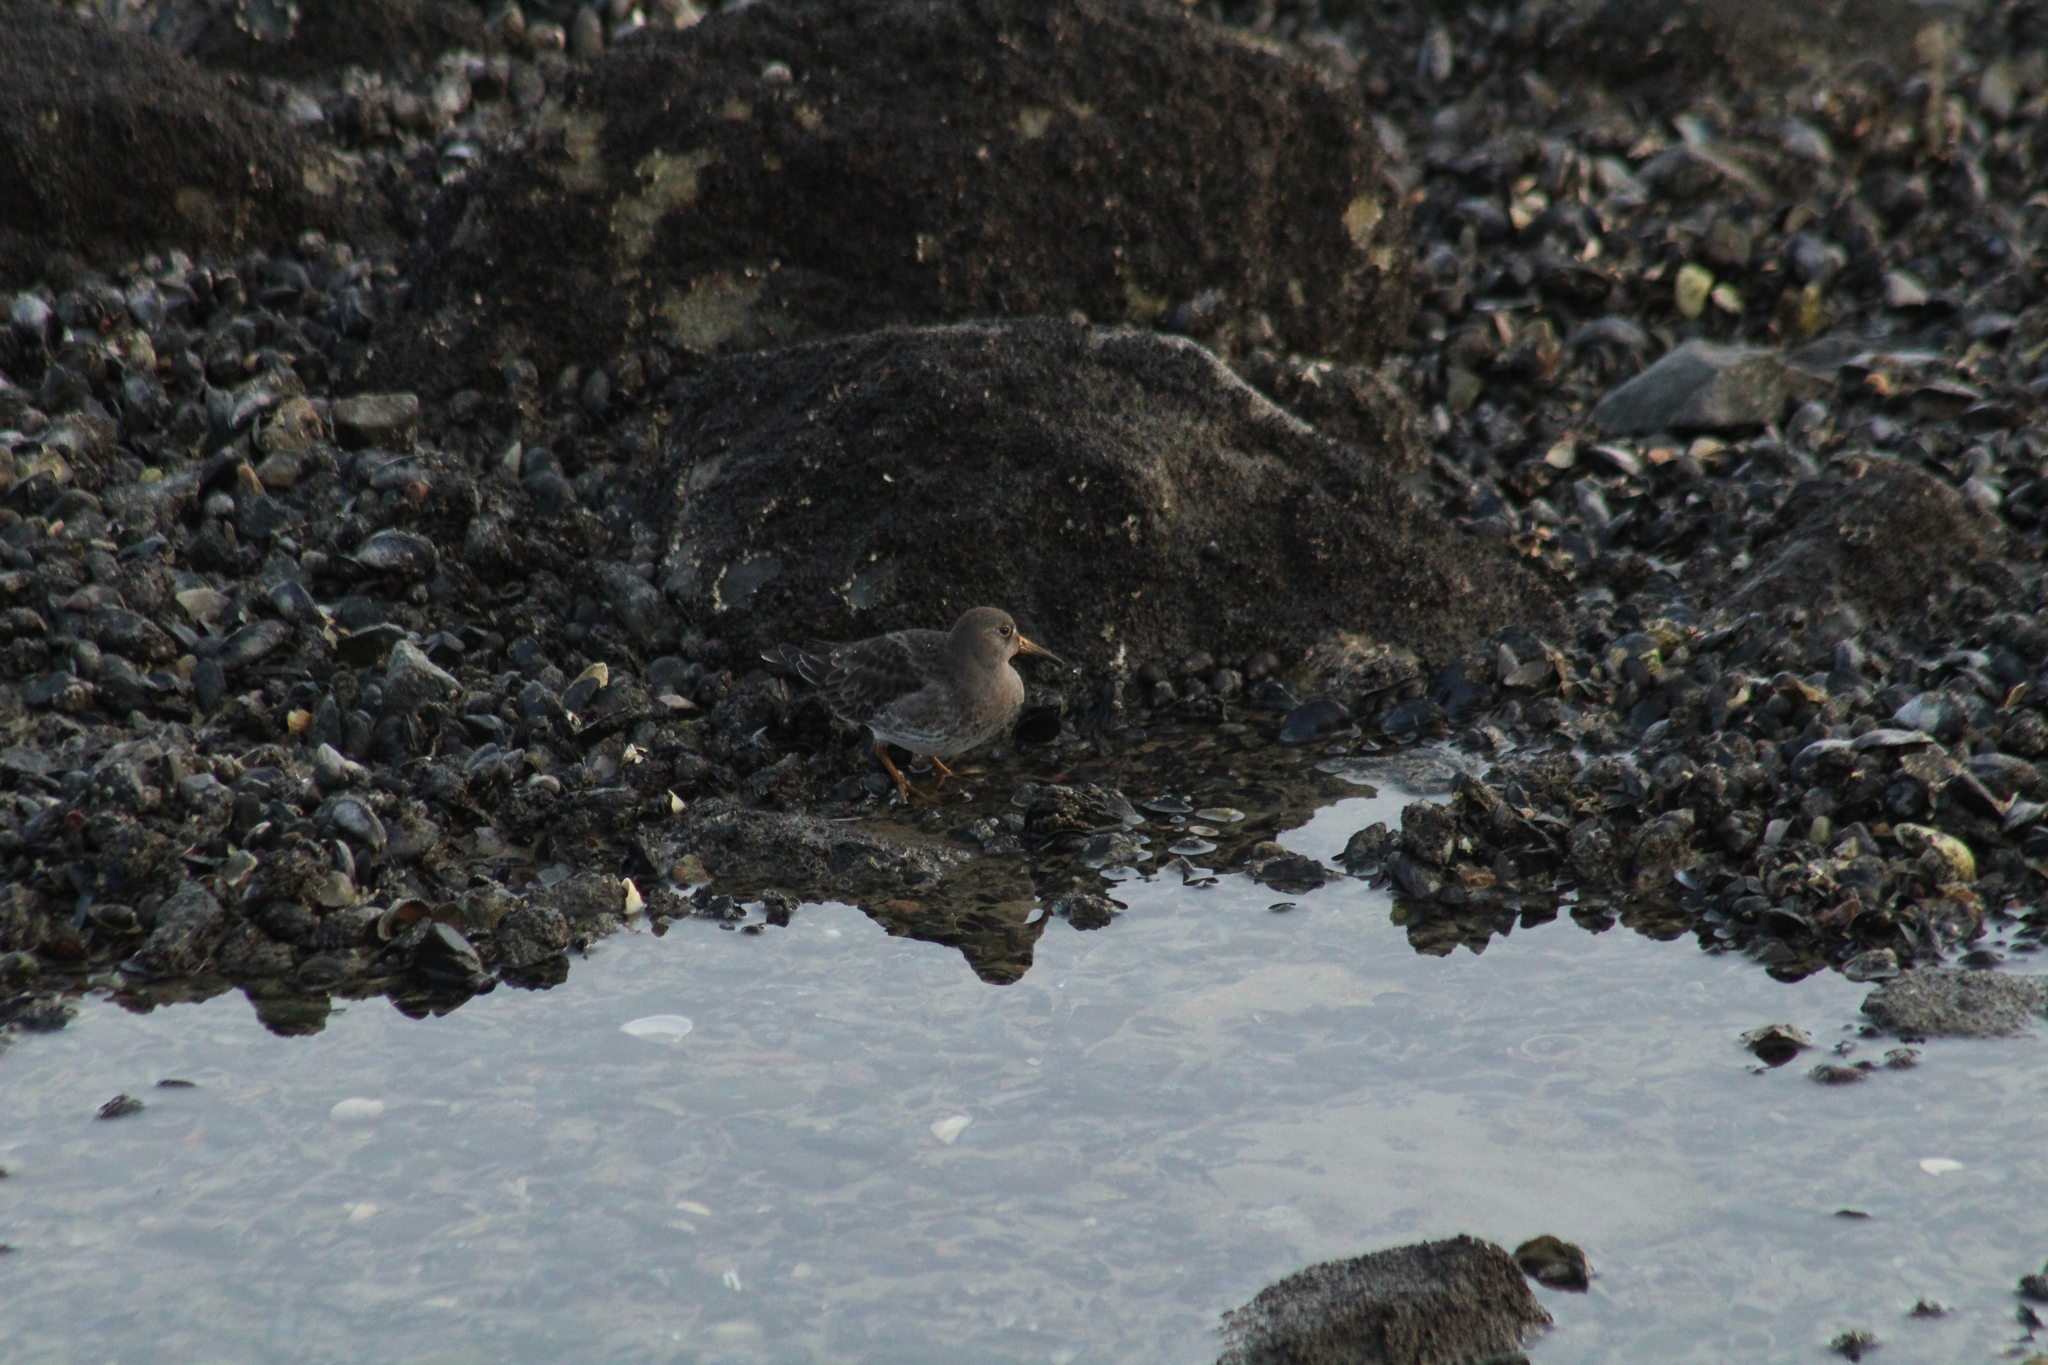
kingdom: Animalia
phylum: Chordata
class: Aves
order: Charadriiformes
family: Scolopacidae
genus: Calidris
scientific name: Calidris maritima
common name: Purple sandpiper
